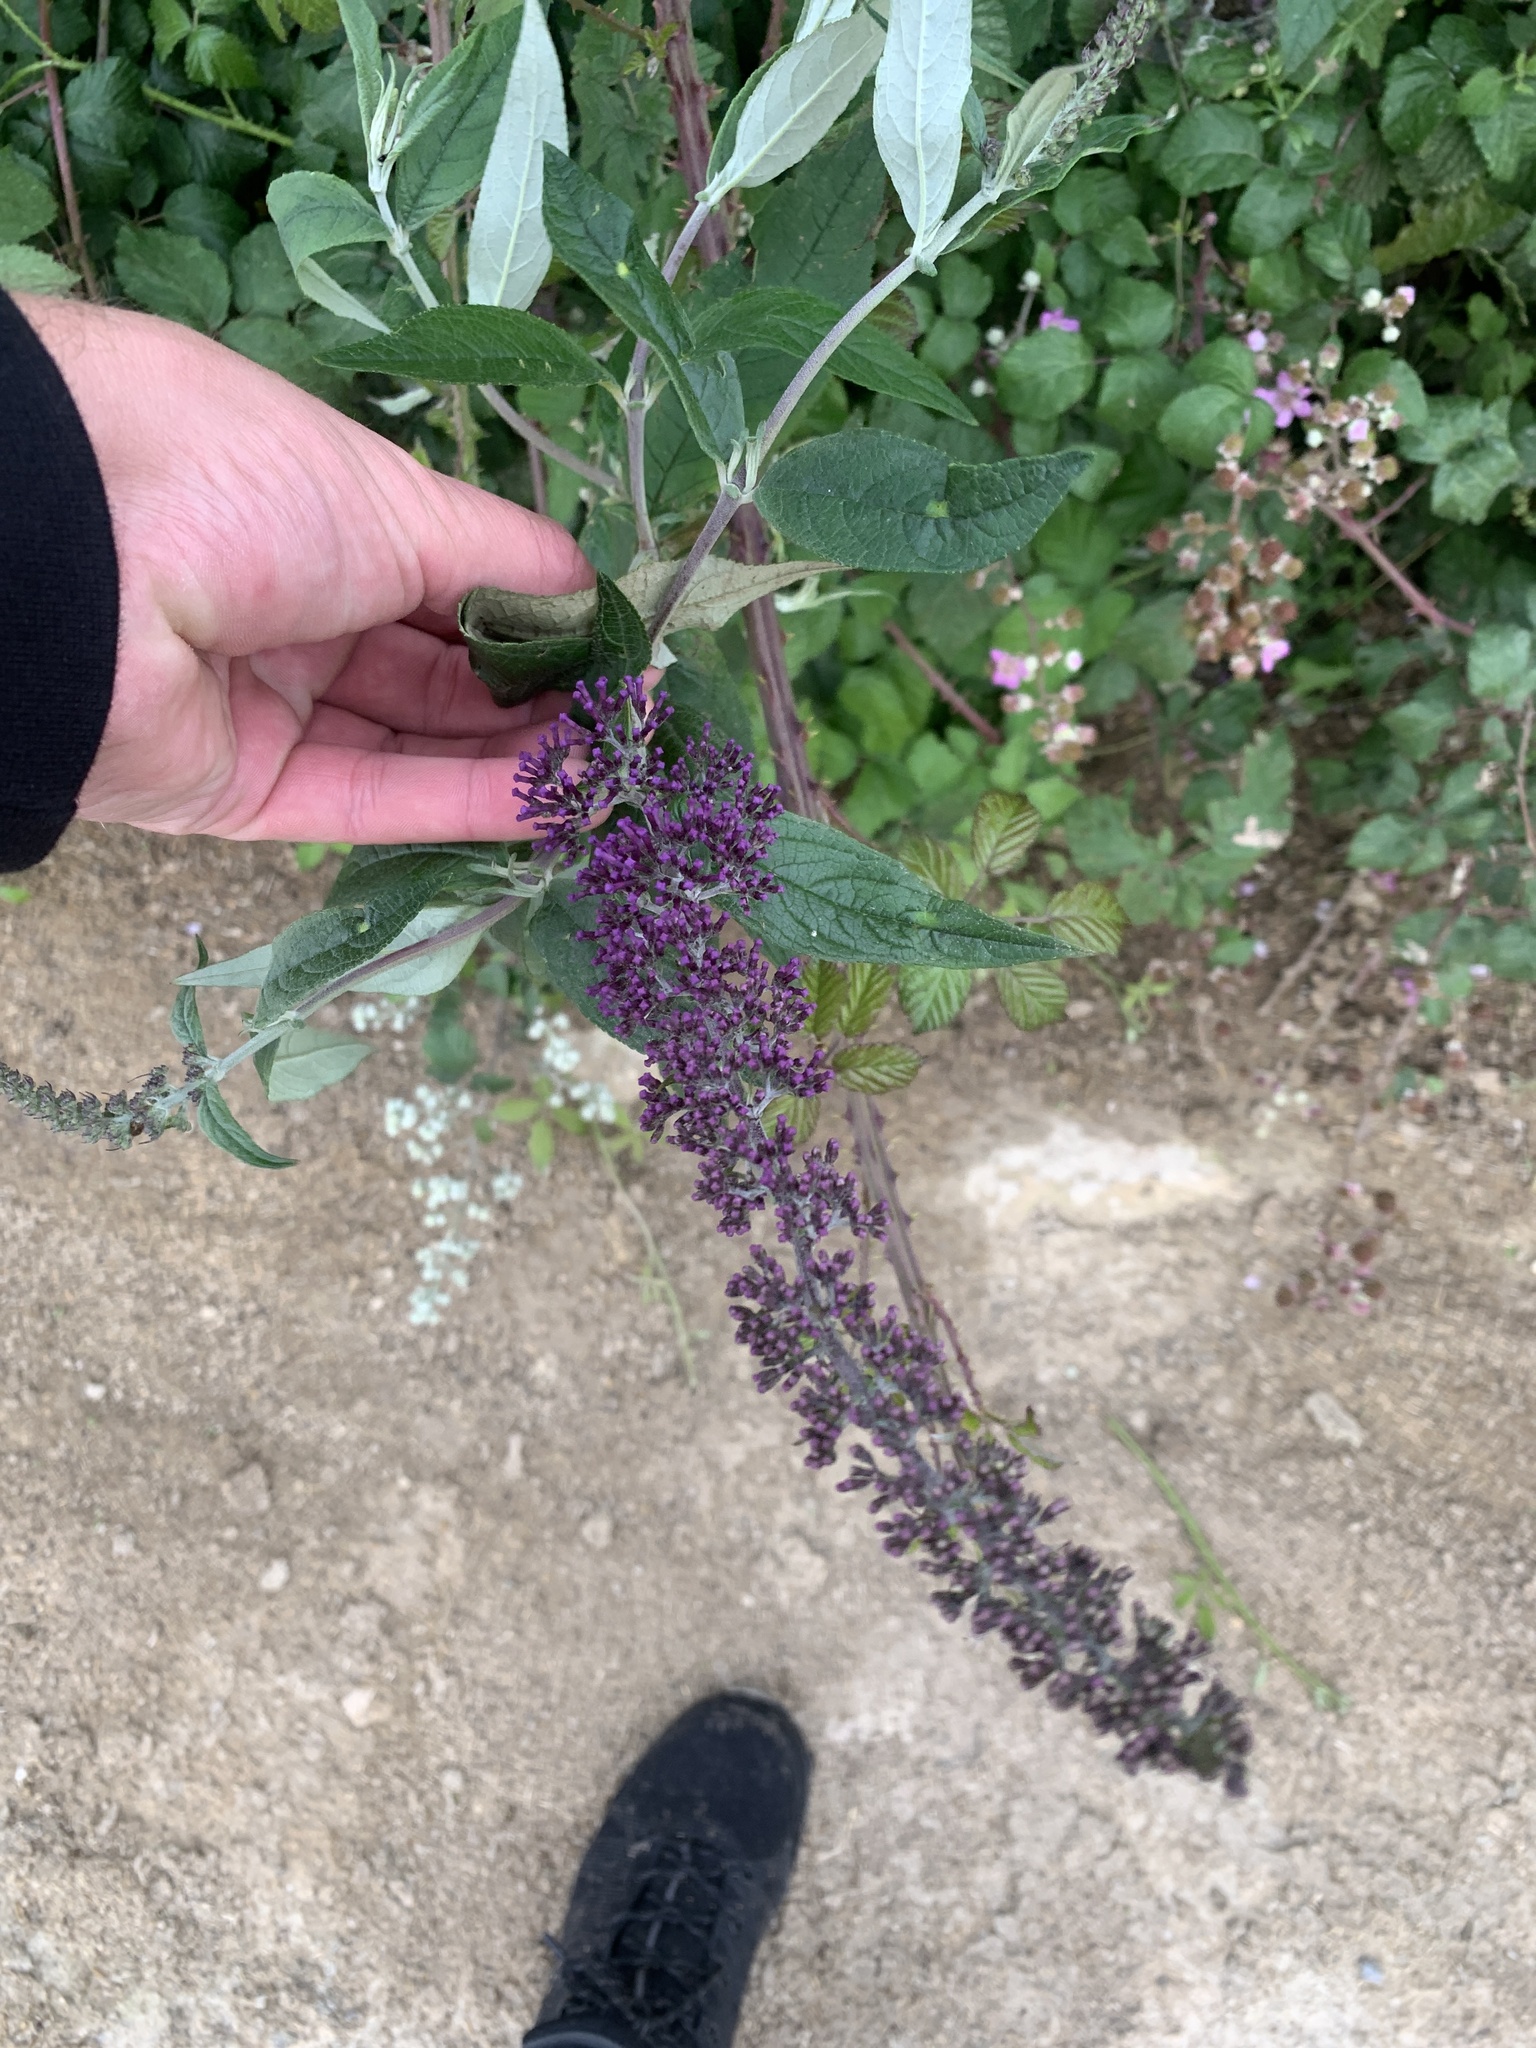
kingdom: Plantae
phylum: Tracheophyta
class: Magnoliopsida
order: Lamiales
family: Scrophulariaceae
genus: Buddleja
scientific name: Buddleja davidii
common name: Butterfly-bush
